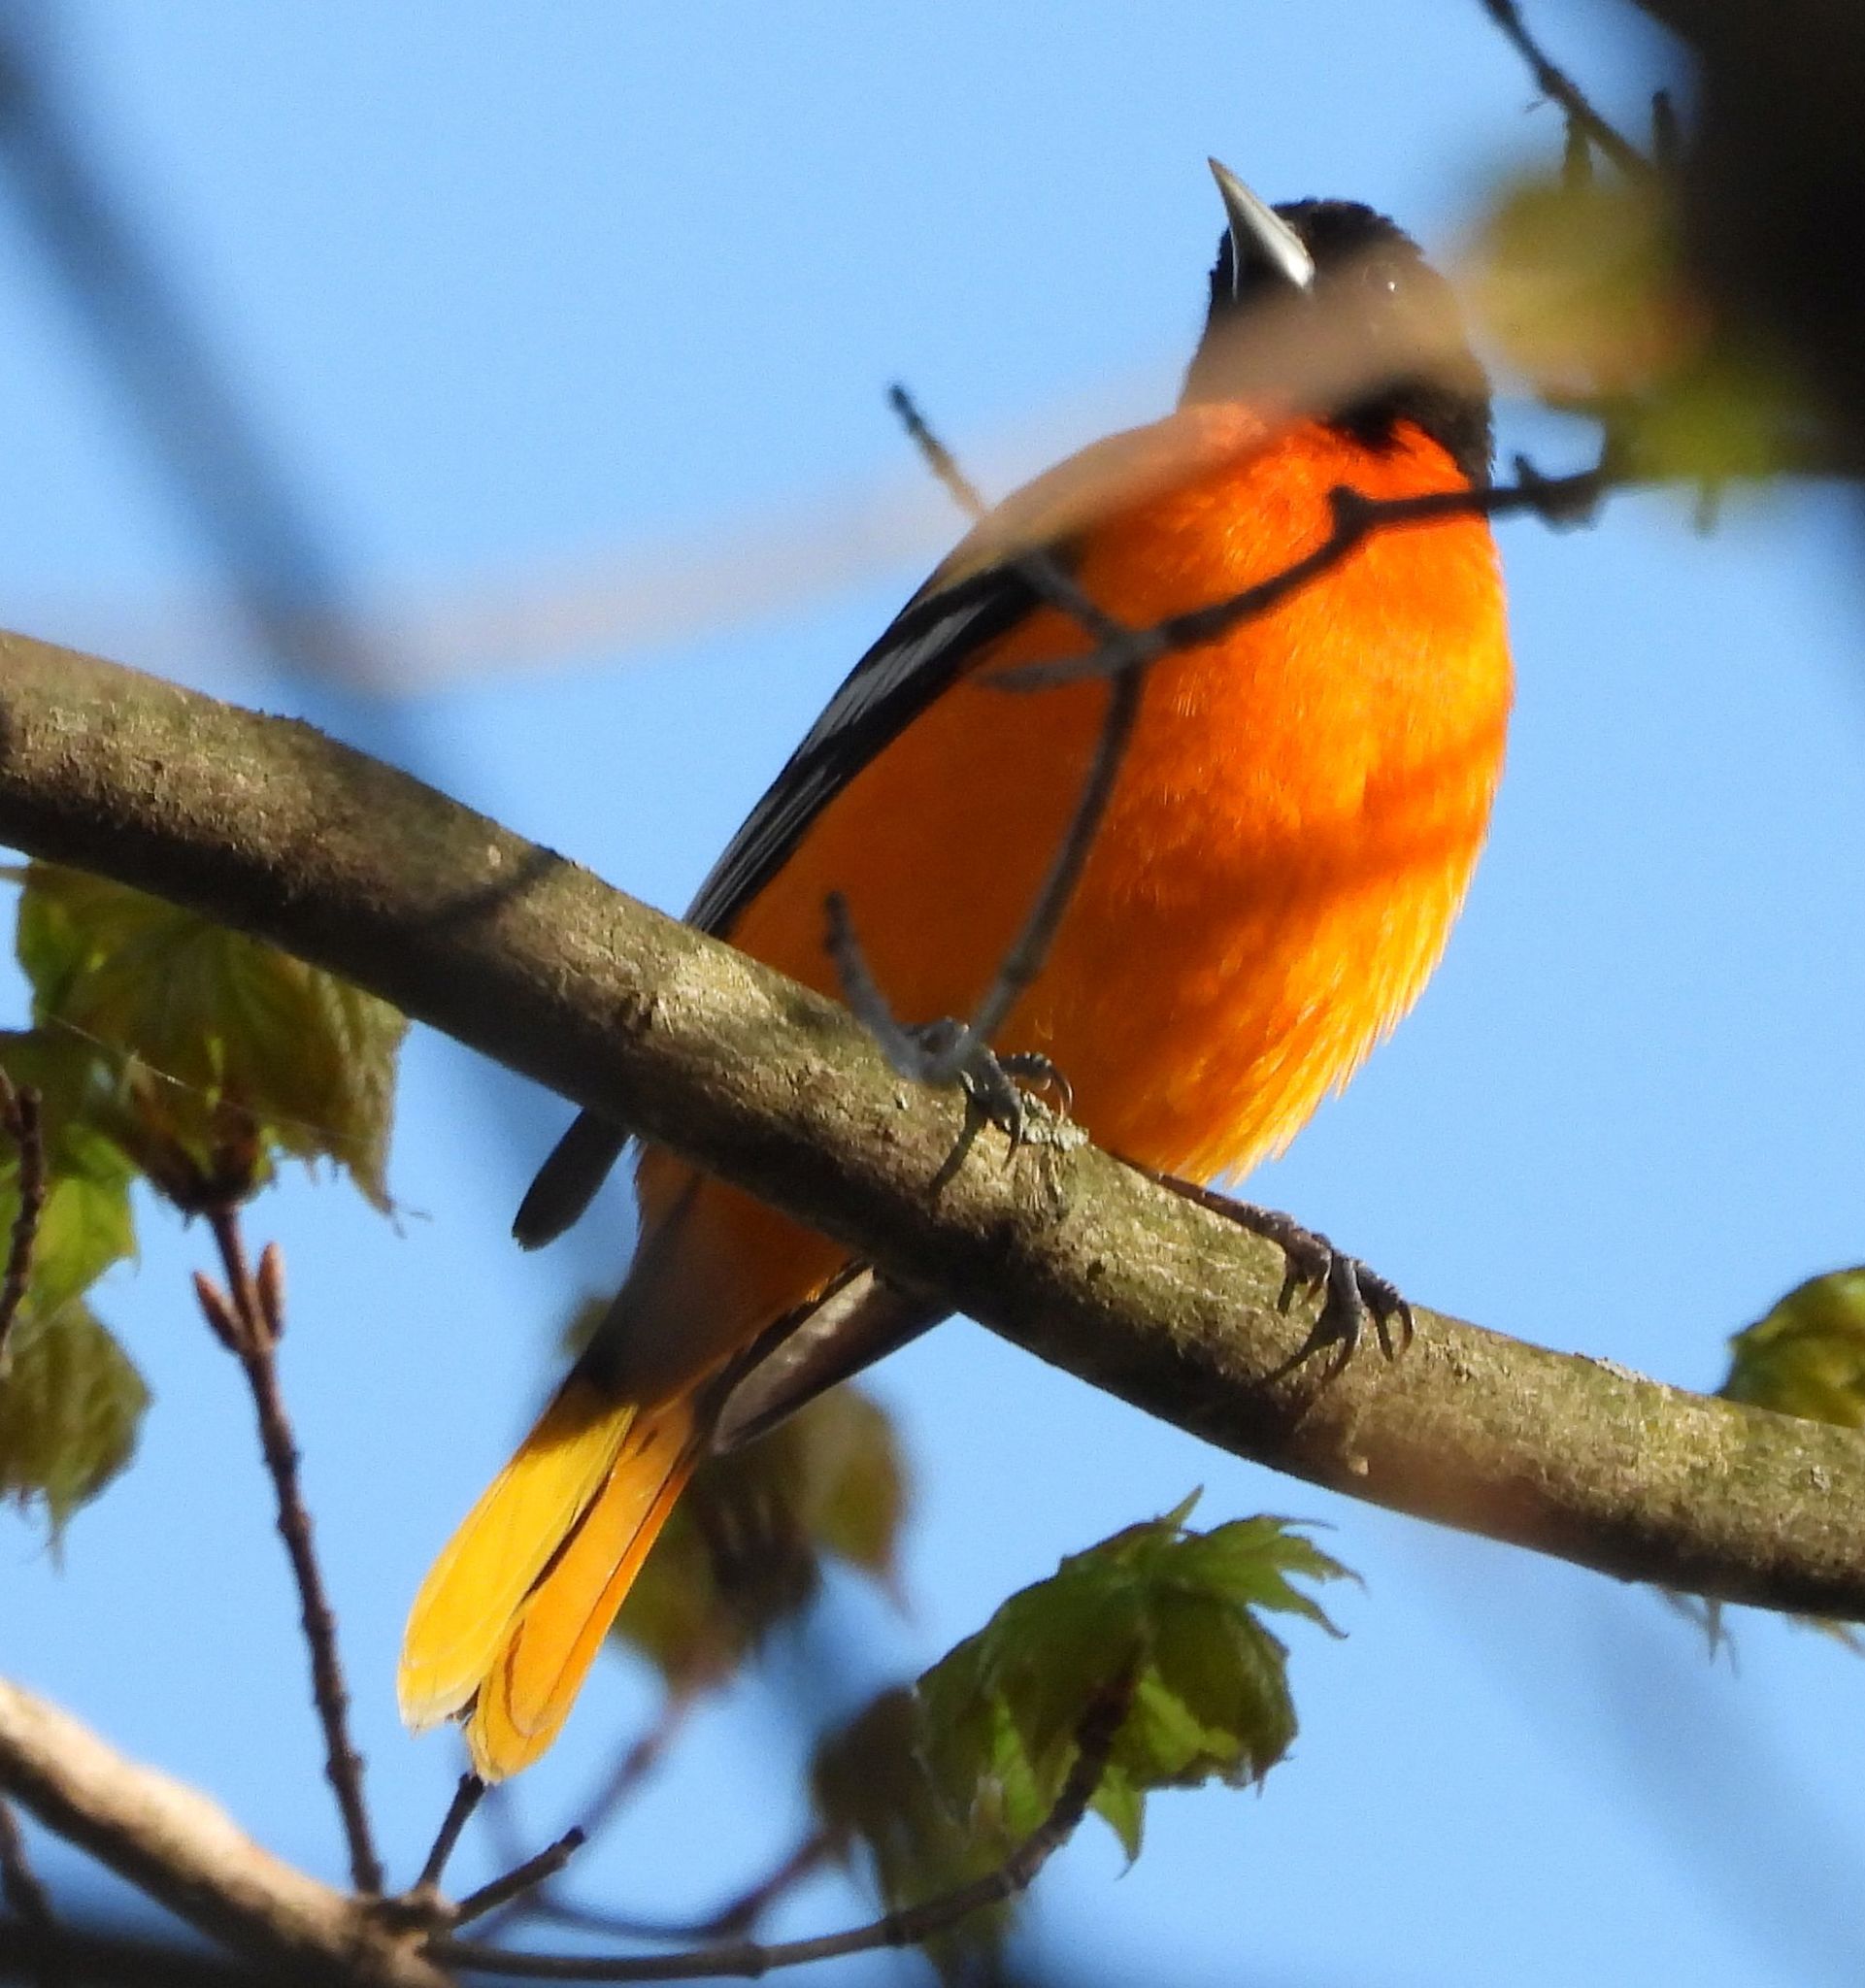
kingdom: Animalia
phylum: Chordata
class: Aves
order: Passeriformes
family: Icteridae
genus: Icterus
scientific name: Icterus galbula
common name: Baltimore oriole
